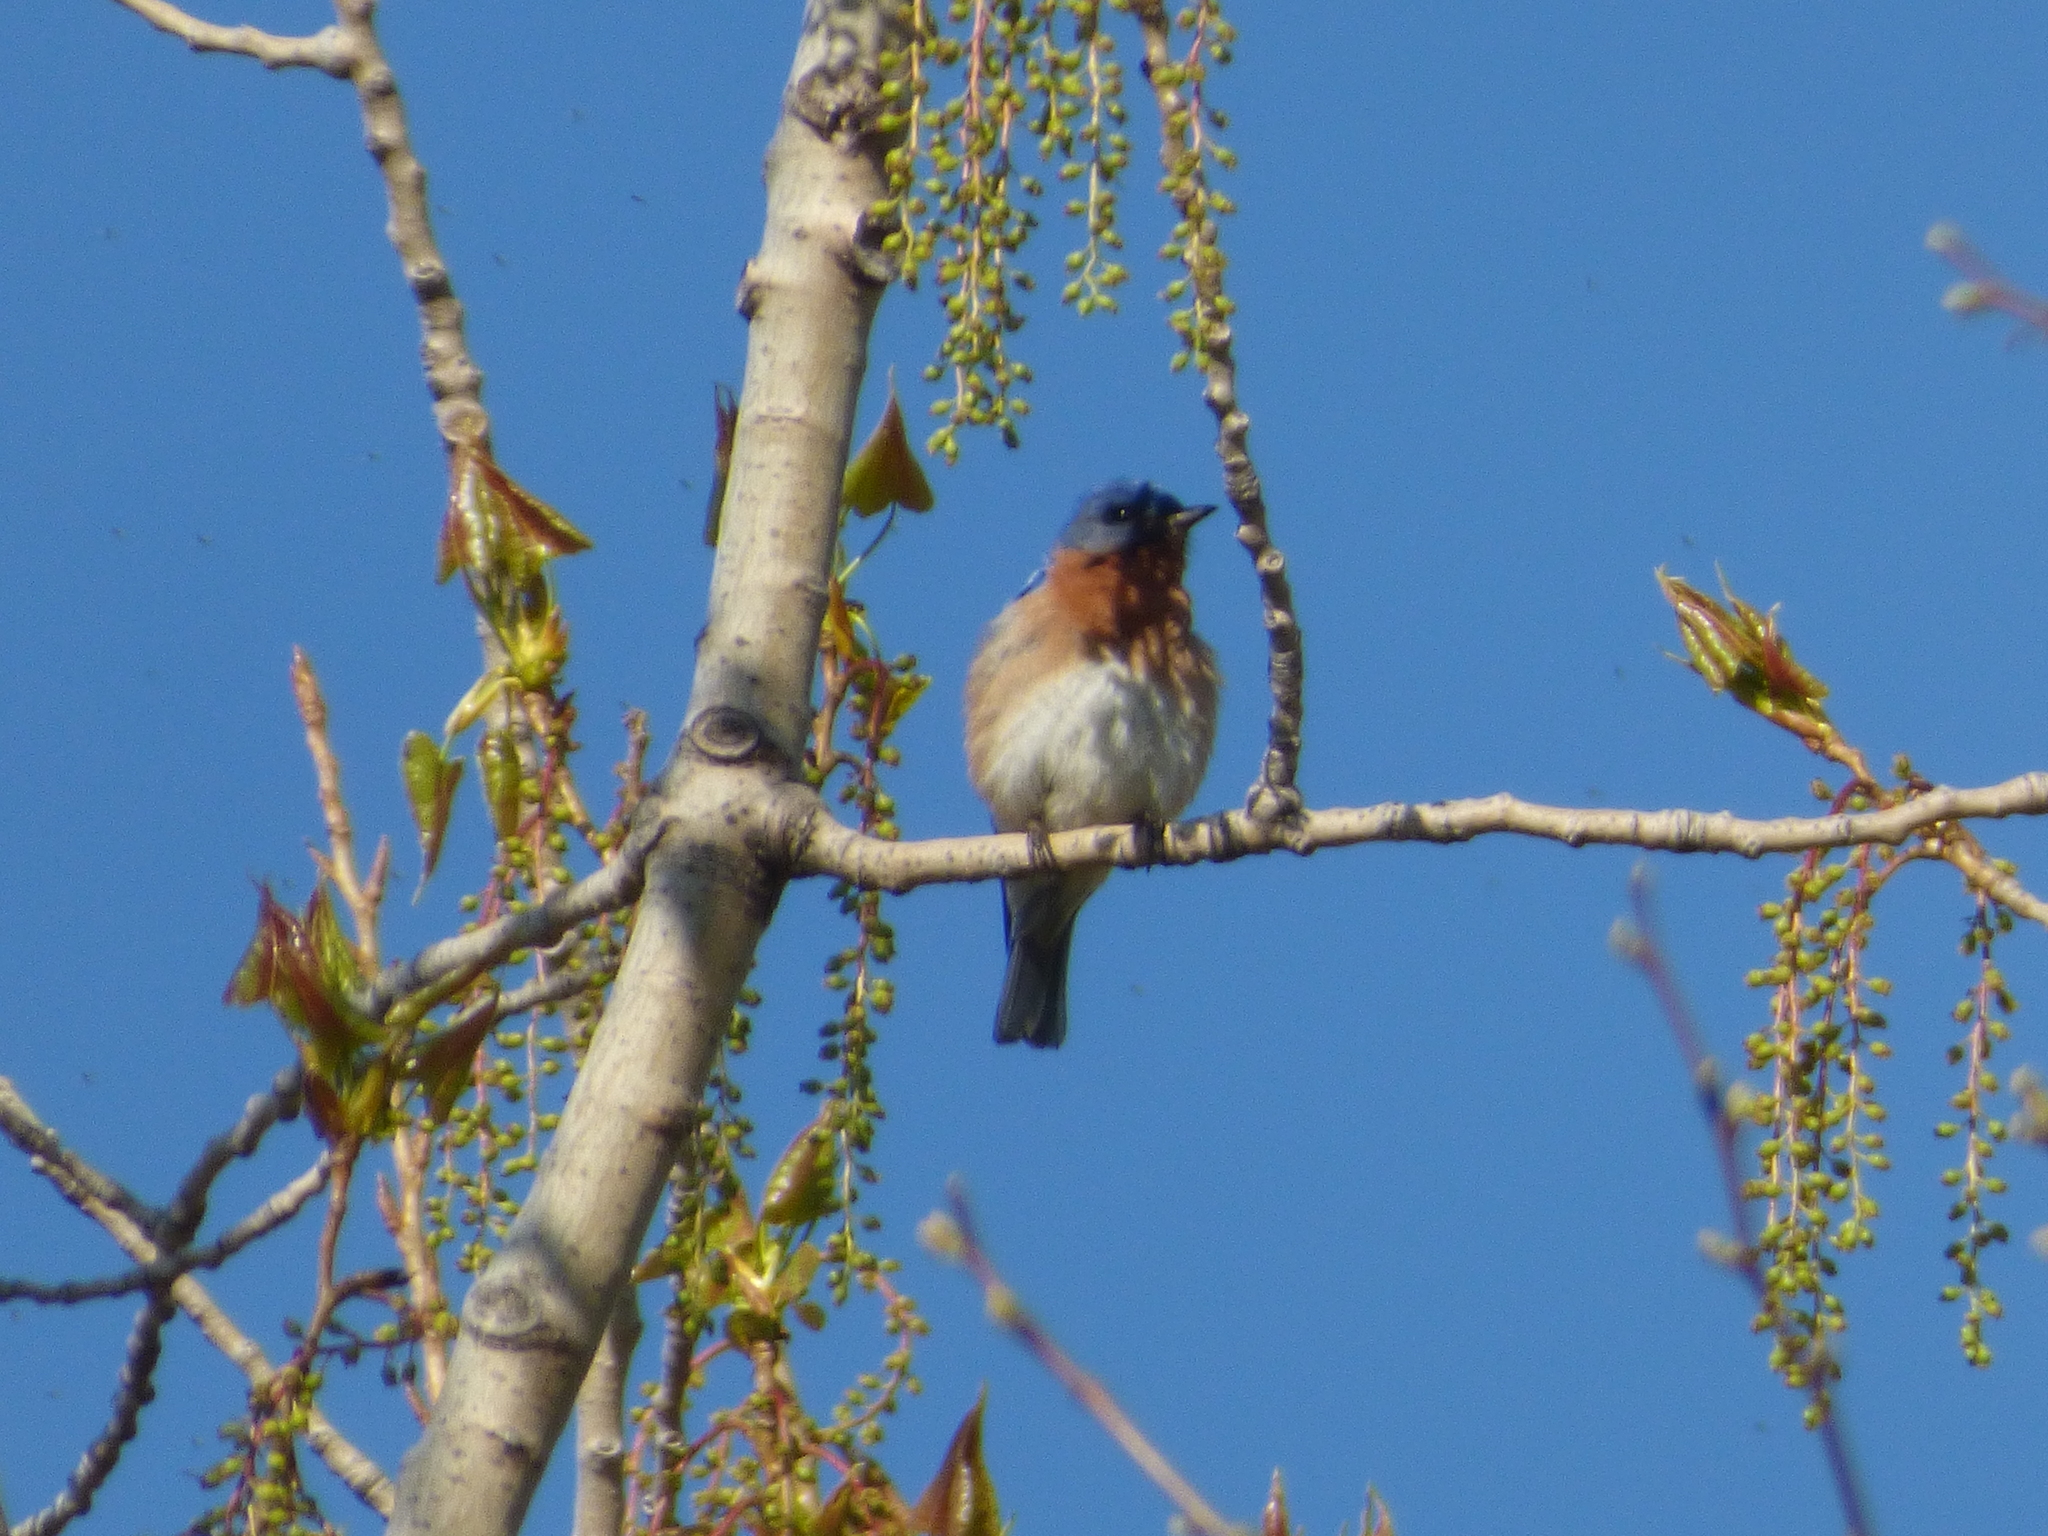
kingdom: Animalia
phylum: Chordata
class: Aves
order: Passeriformes
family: Turdidae
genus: Sialia
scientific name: Sialia sialis
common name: Eastern bluebird
